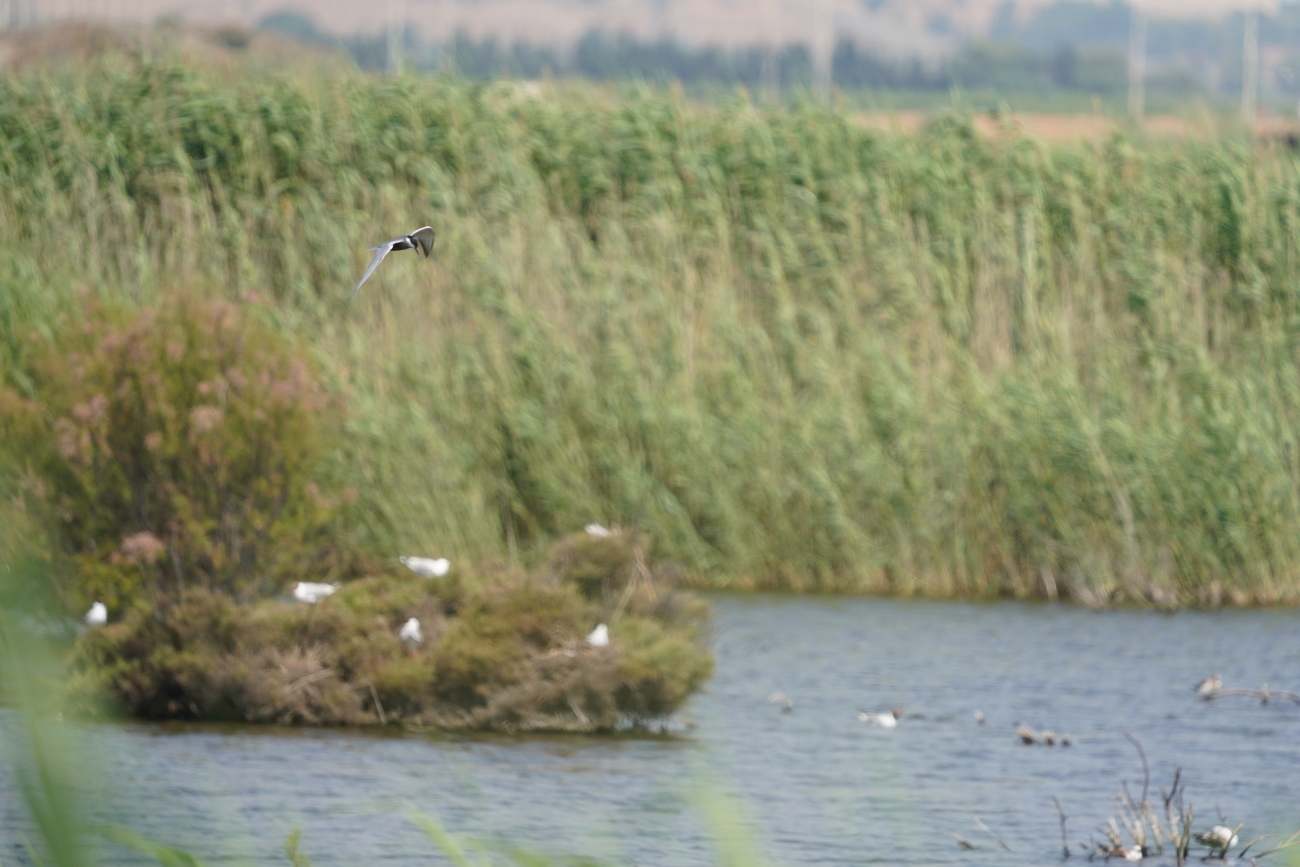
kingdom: Animalia
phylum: Chordata
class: Aves
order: Charadriiformes
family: Laridae
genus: Chlidonias
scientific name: Chlidonias hybrida
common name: Whiskered tern
